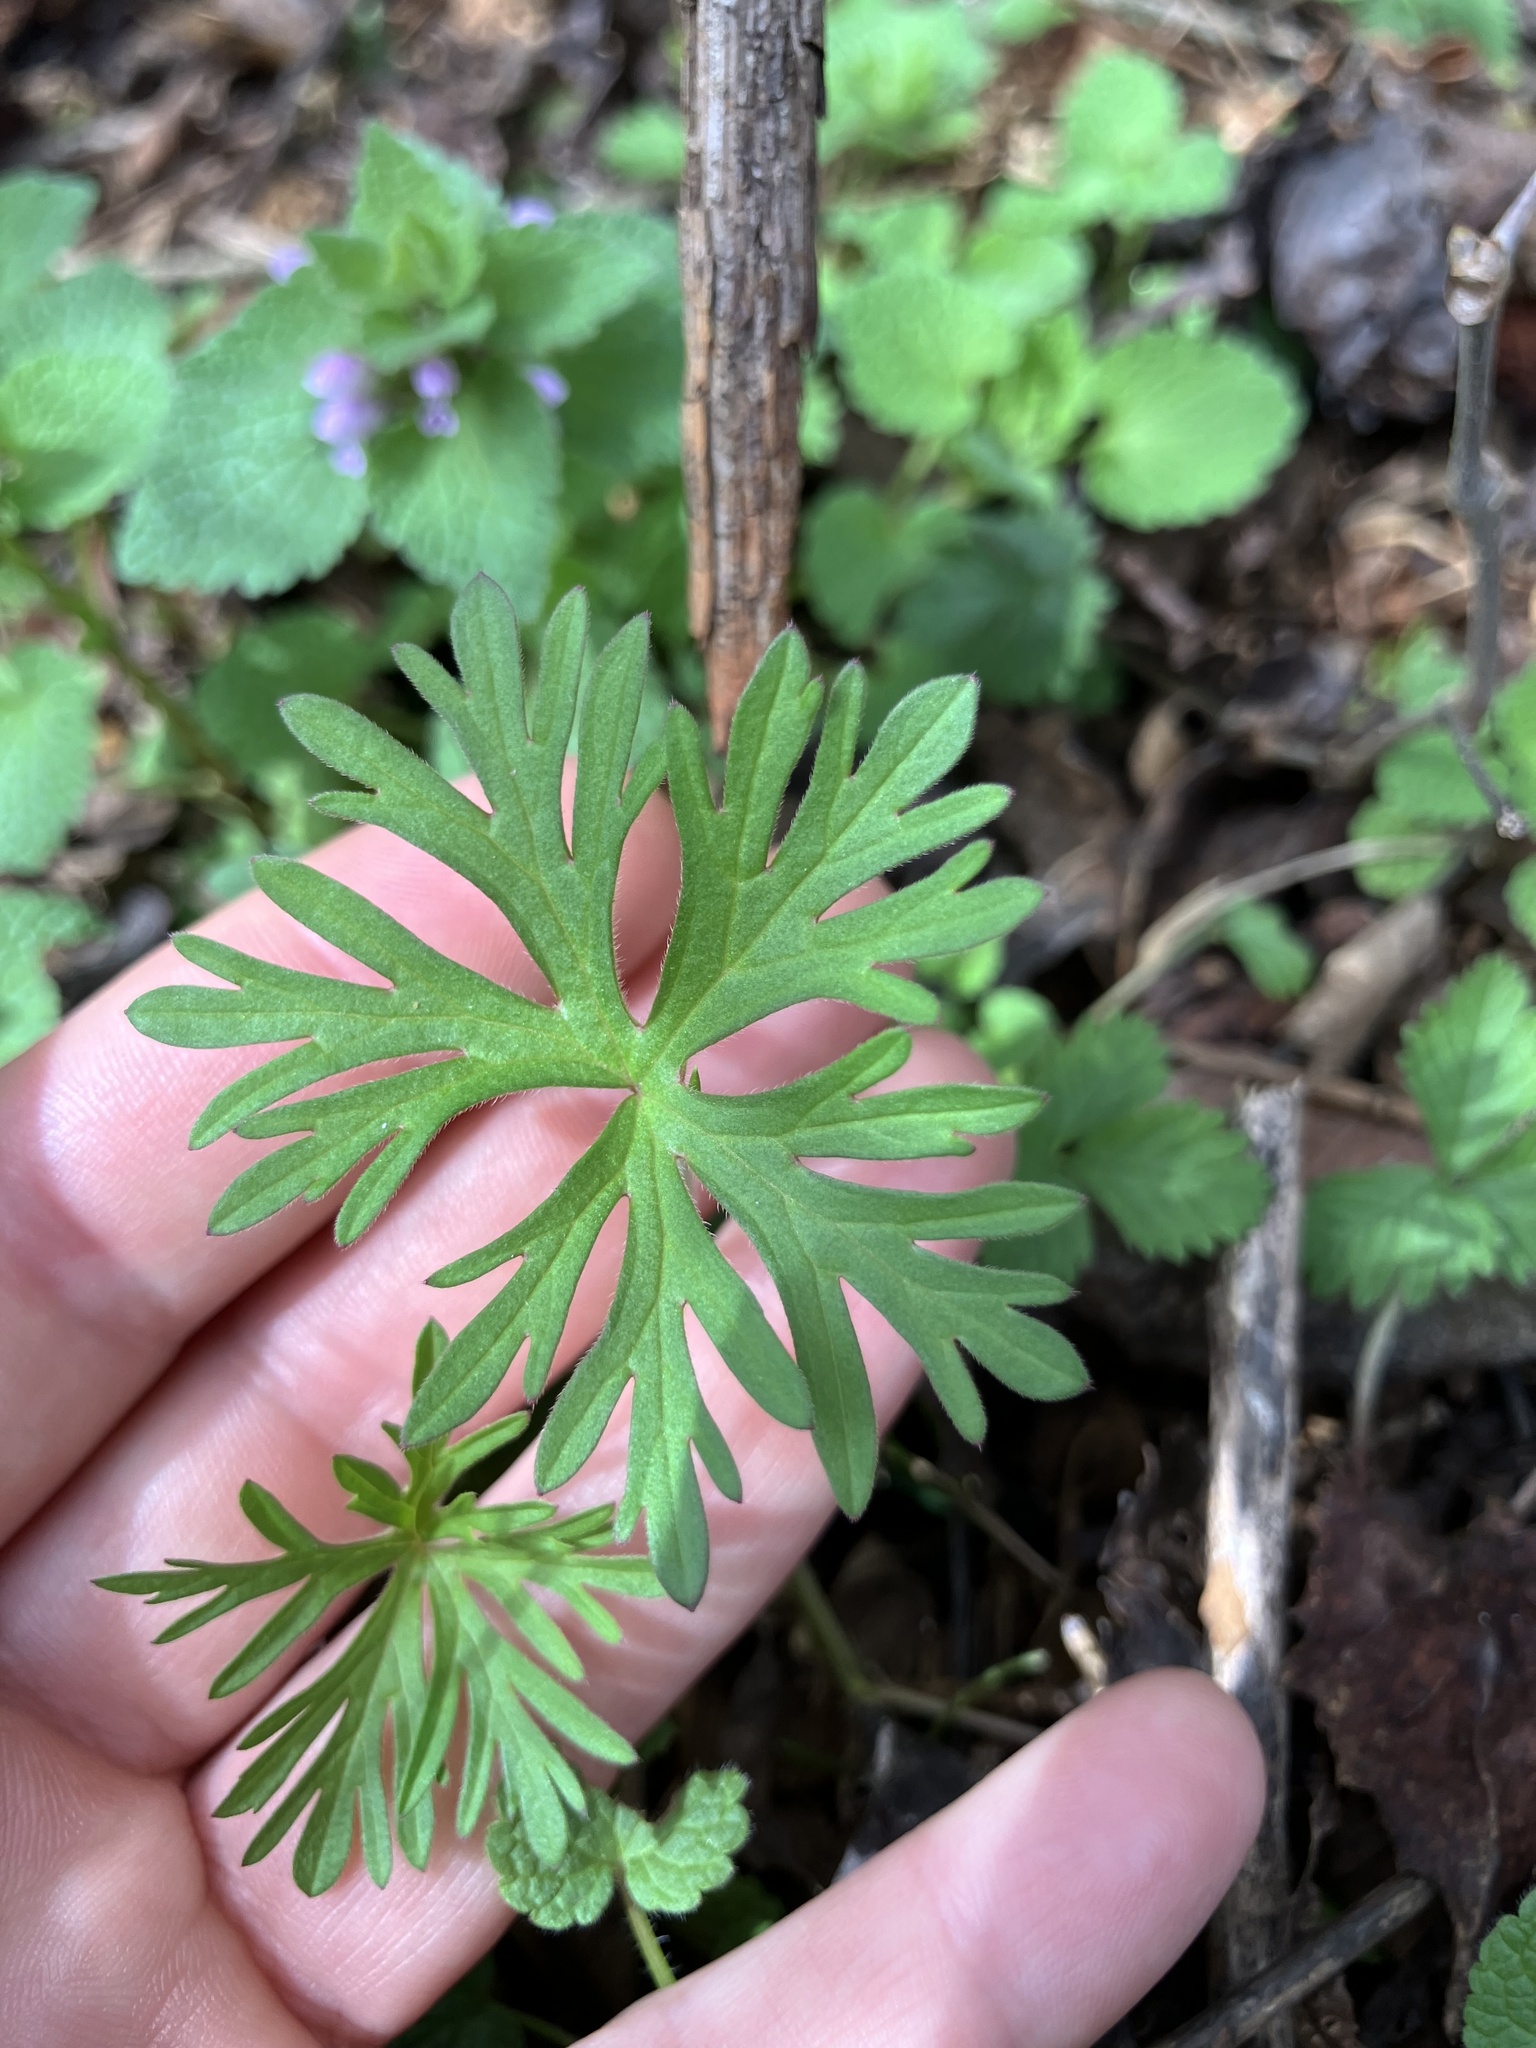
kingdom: Plantae
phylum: Tracheophyta
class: Magnoliopsida
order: Geraniales
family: Geraniaceae
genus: Geranium
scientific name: Geranium carolinianum
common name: Carolina crane's-bill
